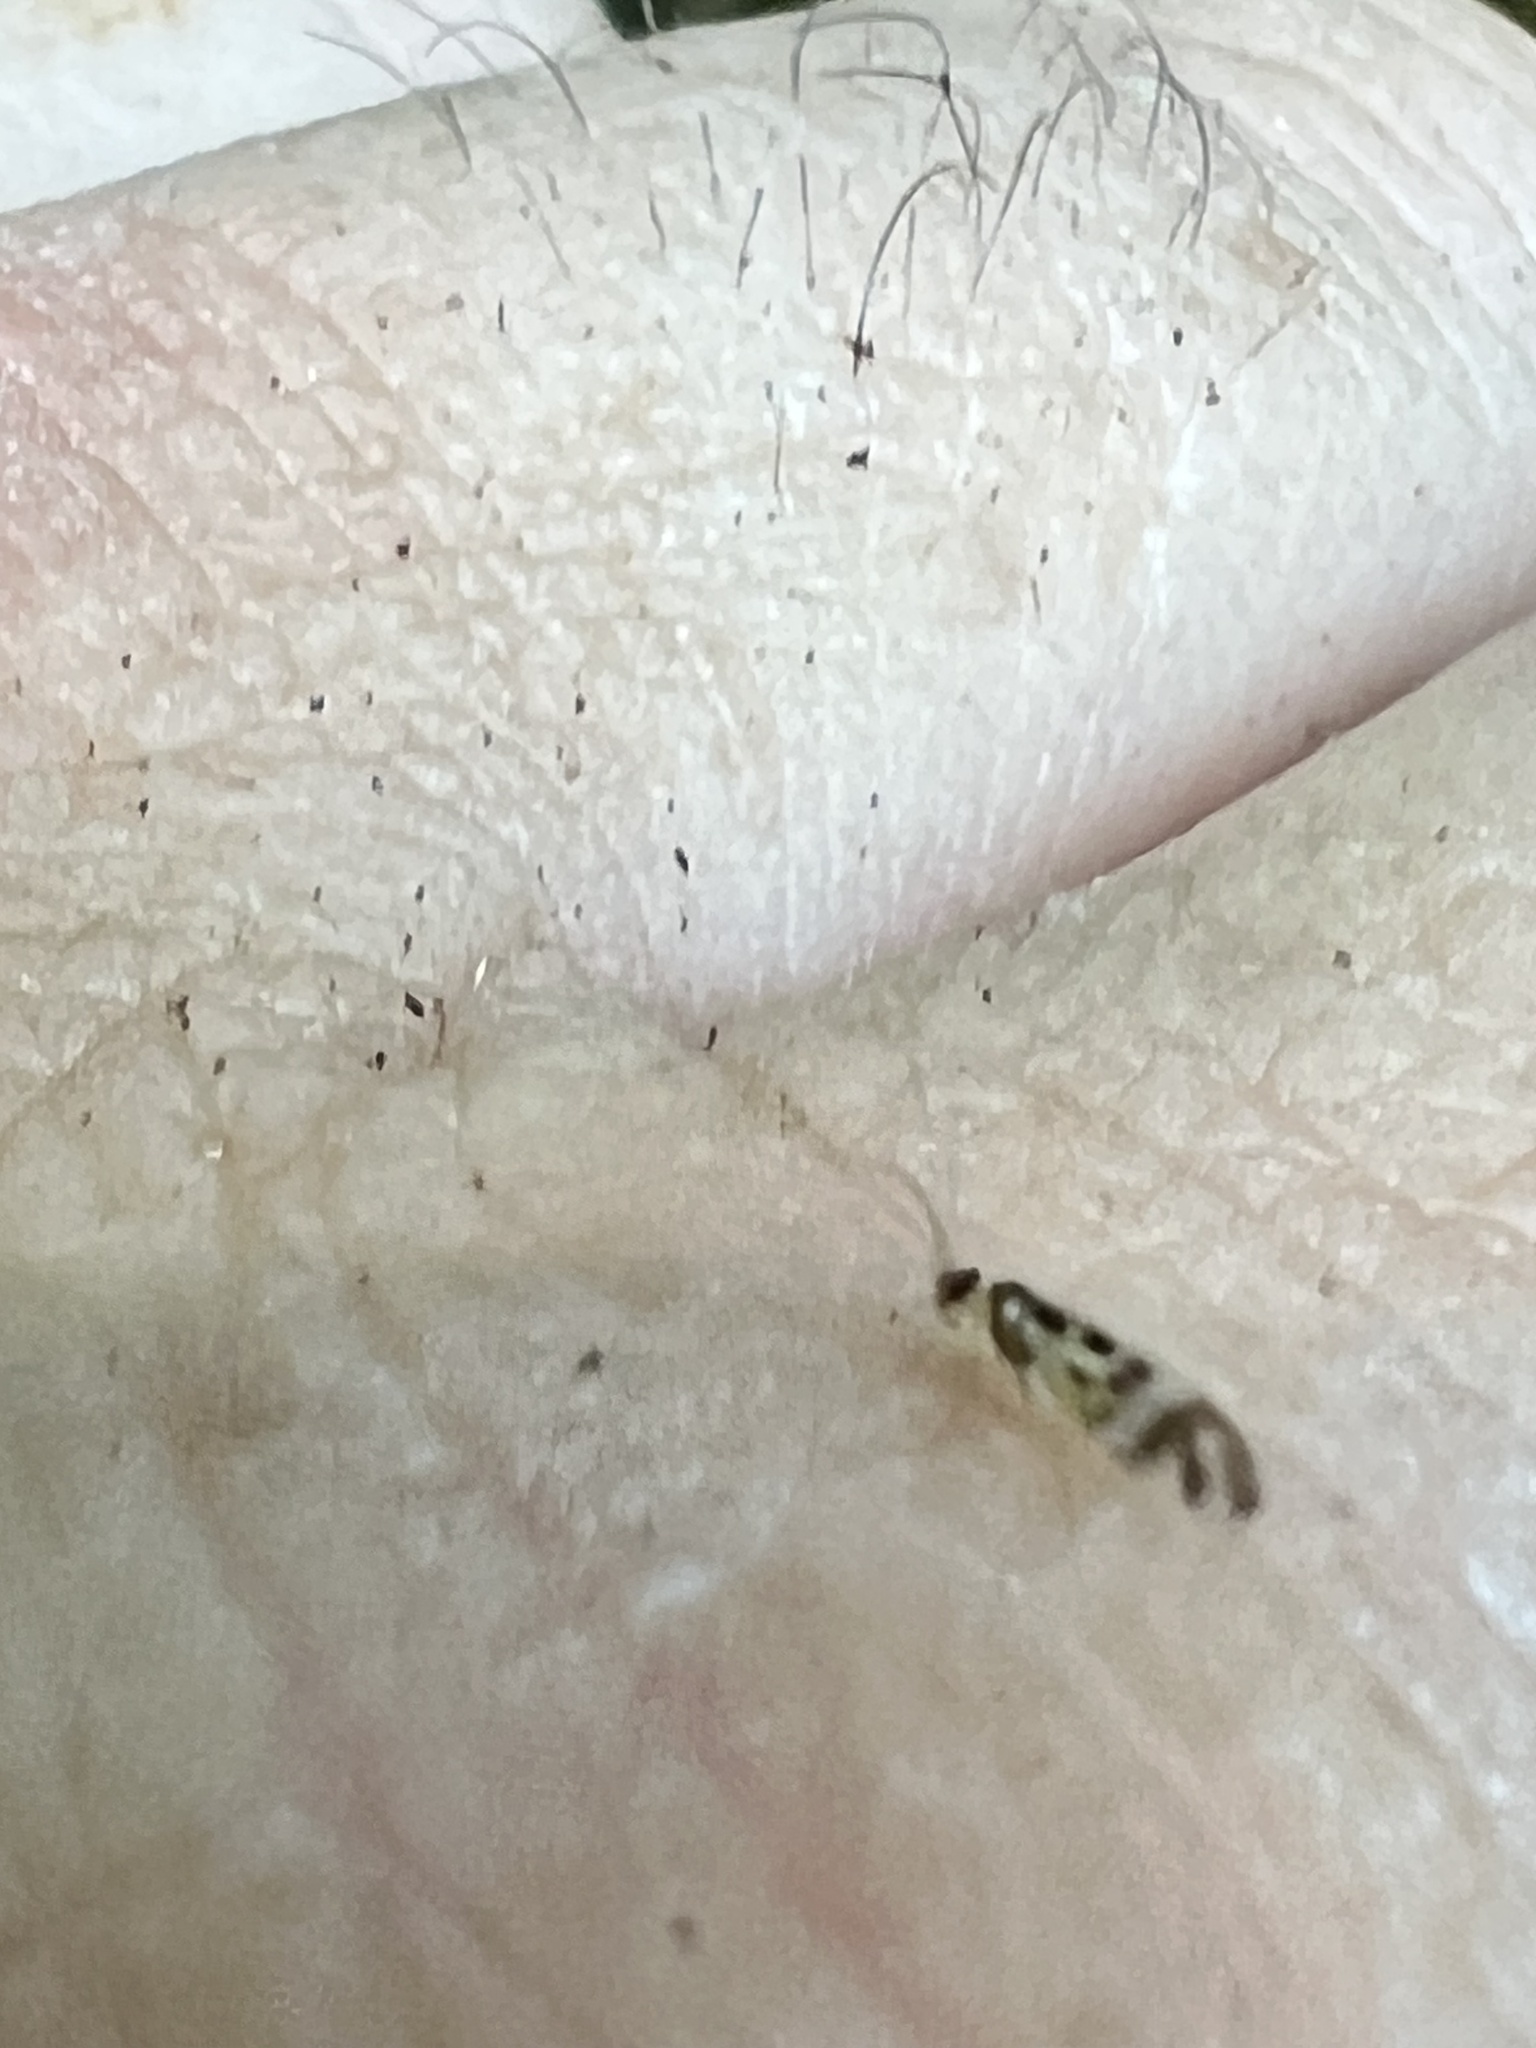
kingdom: Animalia
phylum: Arthropoda
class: Insecta
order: Psocodea
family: Stenopsocidae
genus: Graphopsocus
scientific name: Graphopsocus cruciatus
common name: Lizard bark louse
